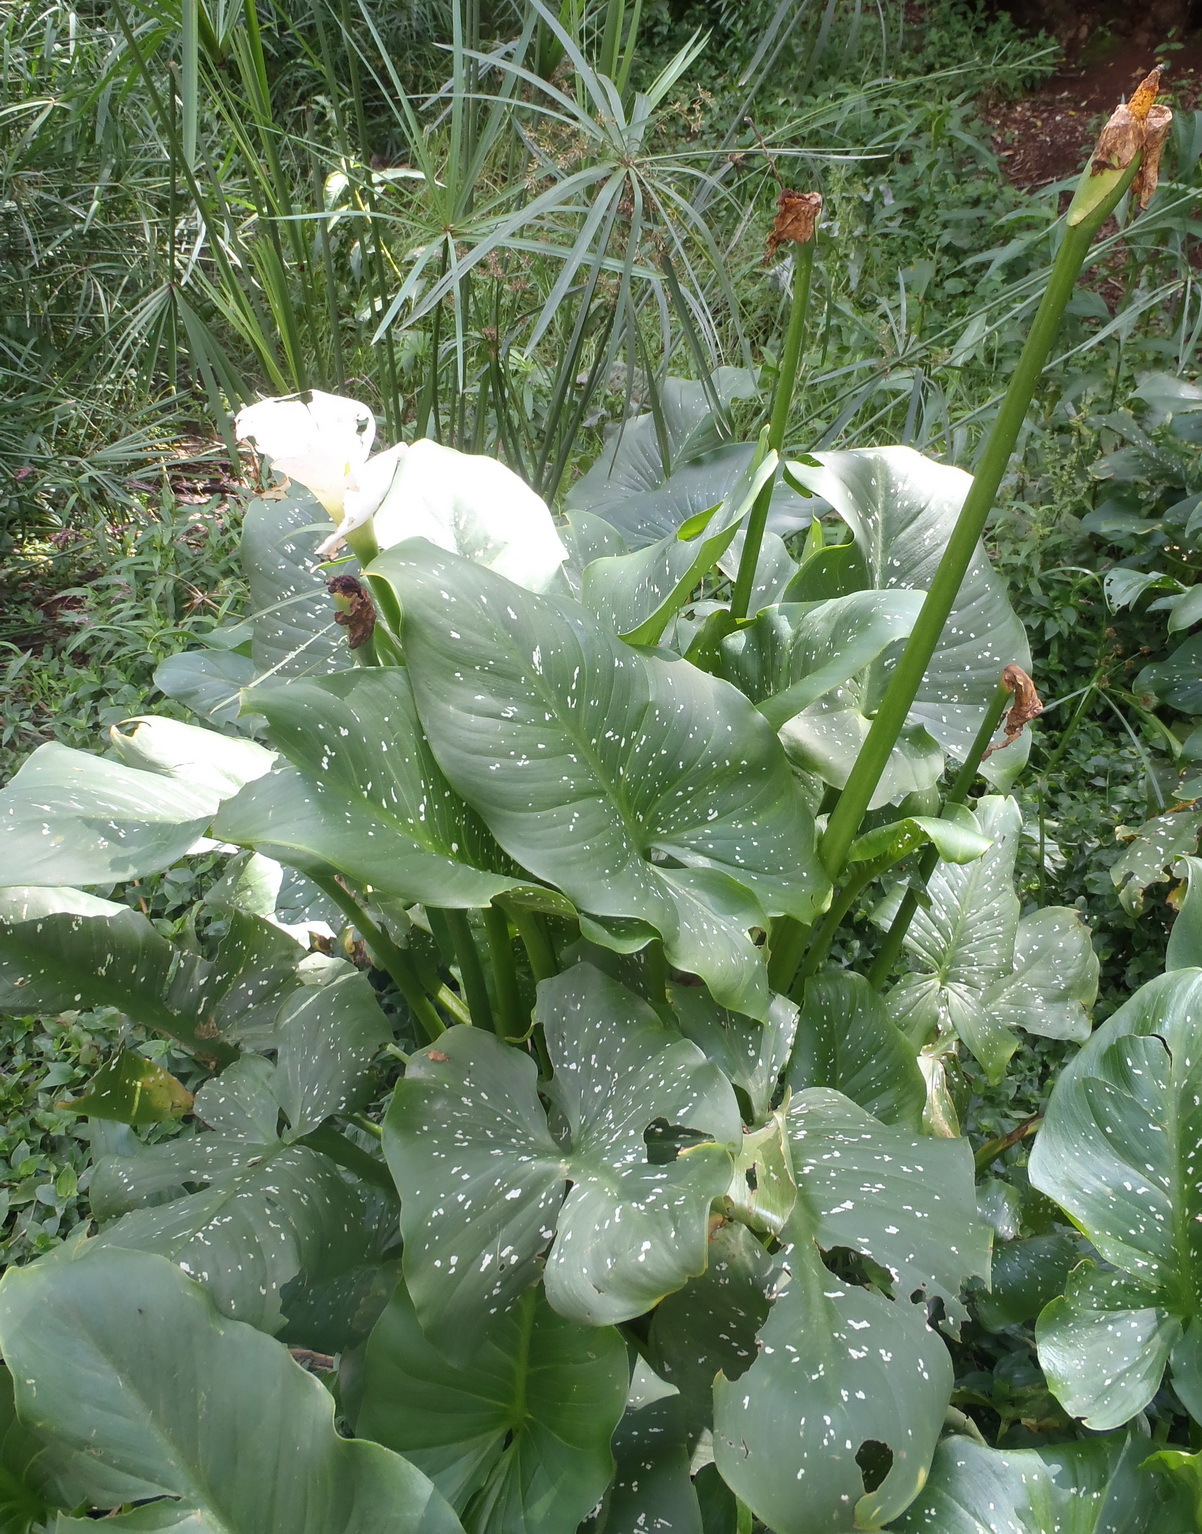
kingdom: Plantae
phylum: Tracheophyta
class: Liliopsida
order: Alismatales
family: Araceae
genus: Zantedeschia
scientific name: Zantedeschia aethiopica
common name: Altar-lily
